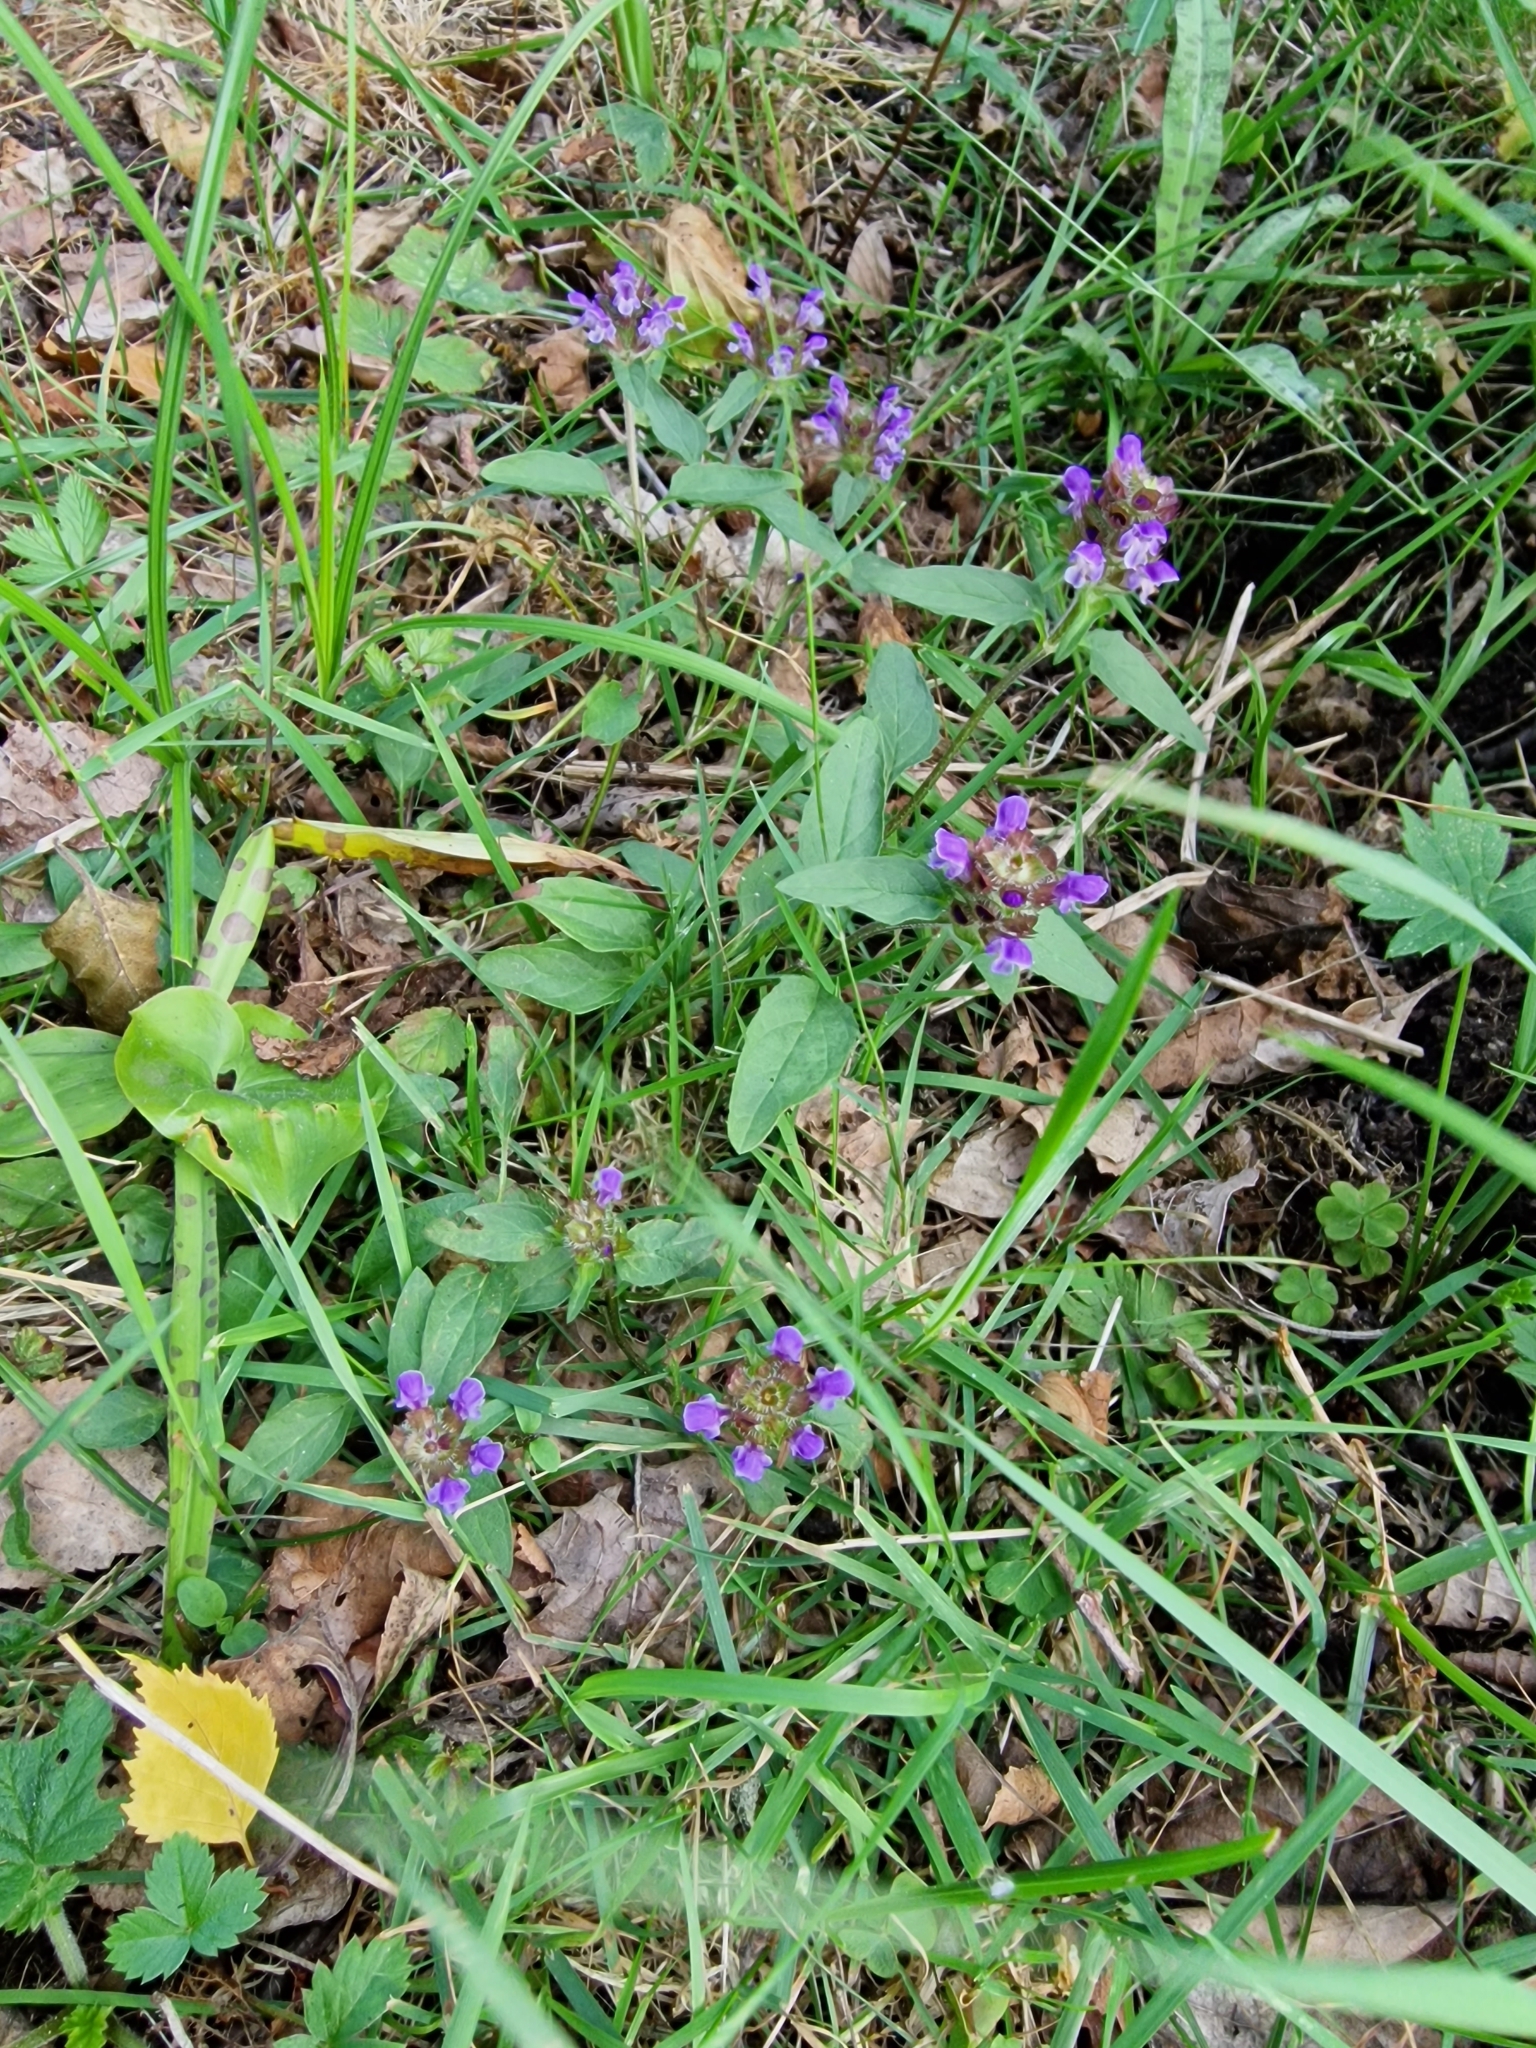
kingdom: Plantae
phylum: Tracheophyta
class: Magnoliopsida
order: Lamiales
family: Lamiaceae
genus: Prunella
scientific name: Prunella vulgaris
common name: Heal-all
